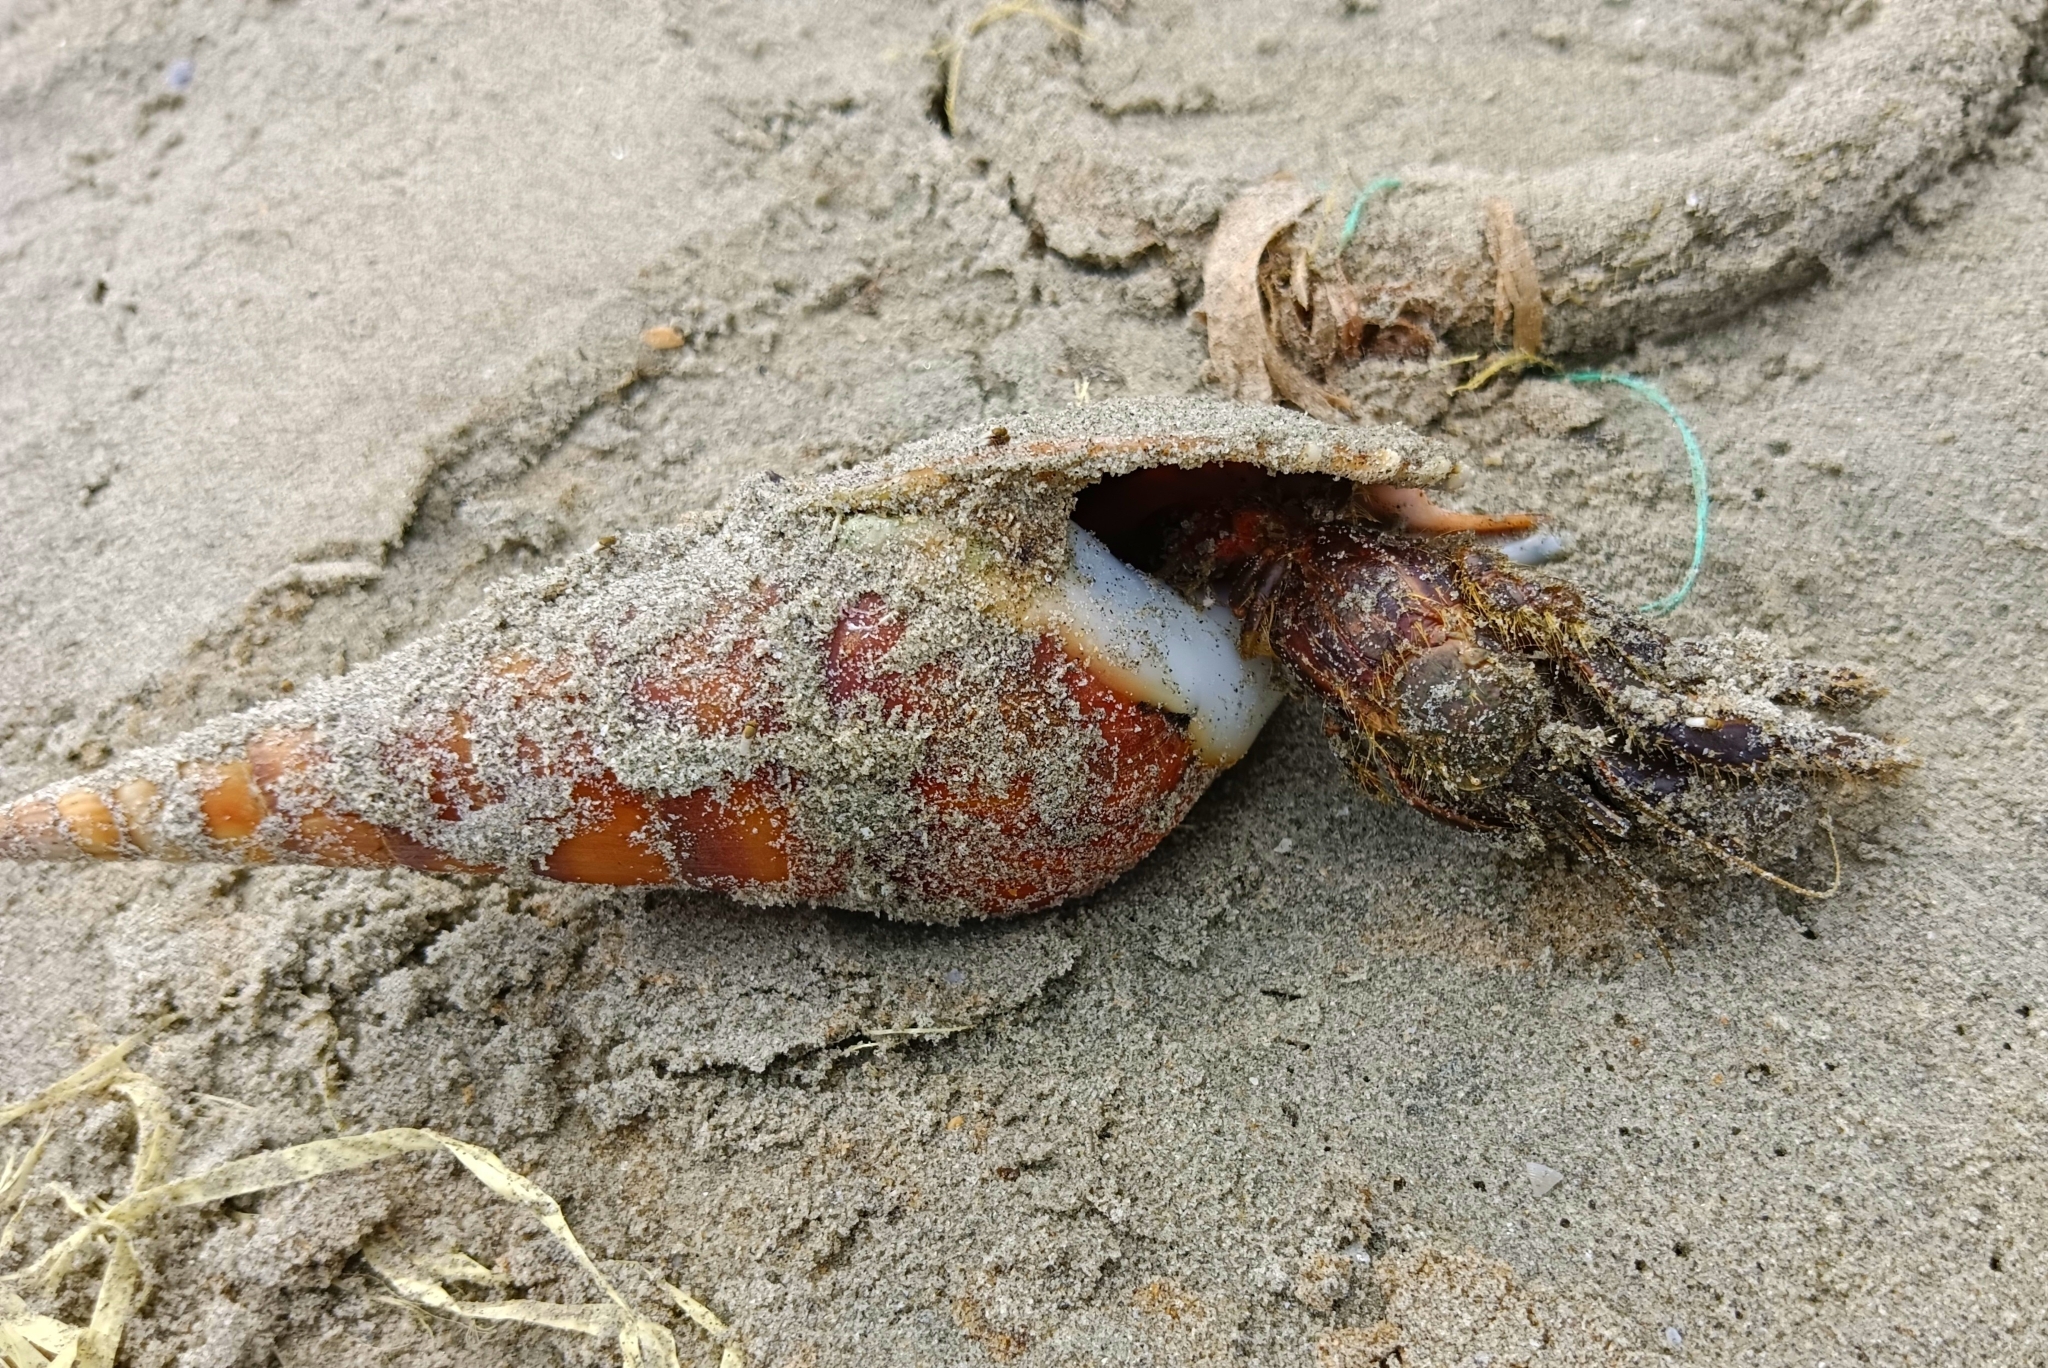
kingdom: Animalia
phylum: Arthropoda
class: Malacostraca
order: Decapoda
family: Diogenidae
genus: Clibanarius
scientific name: Clibanarius clibanarius
